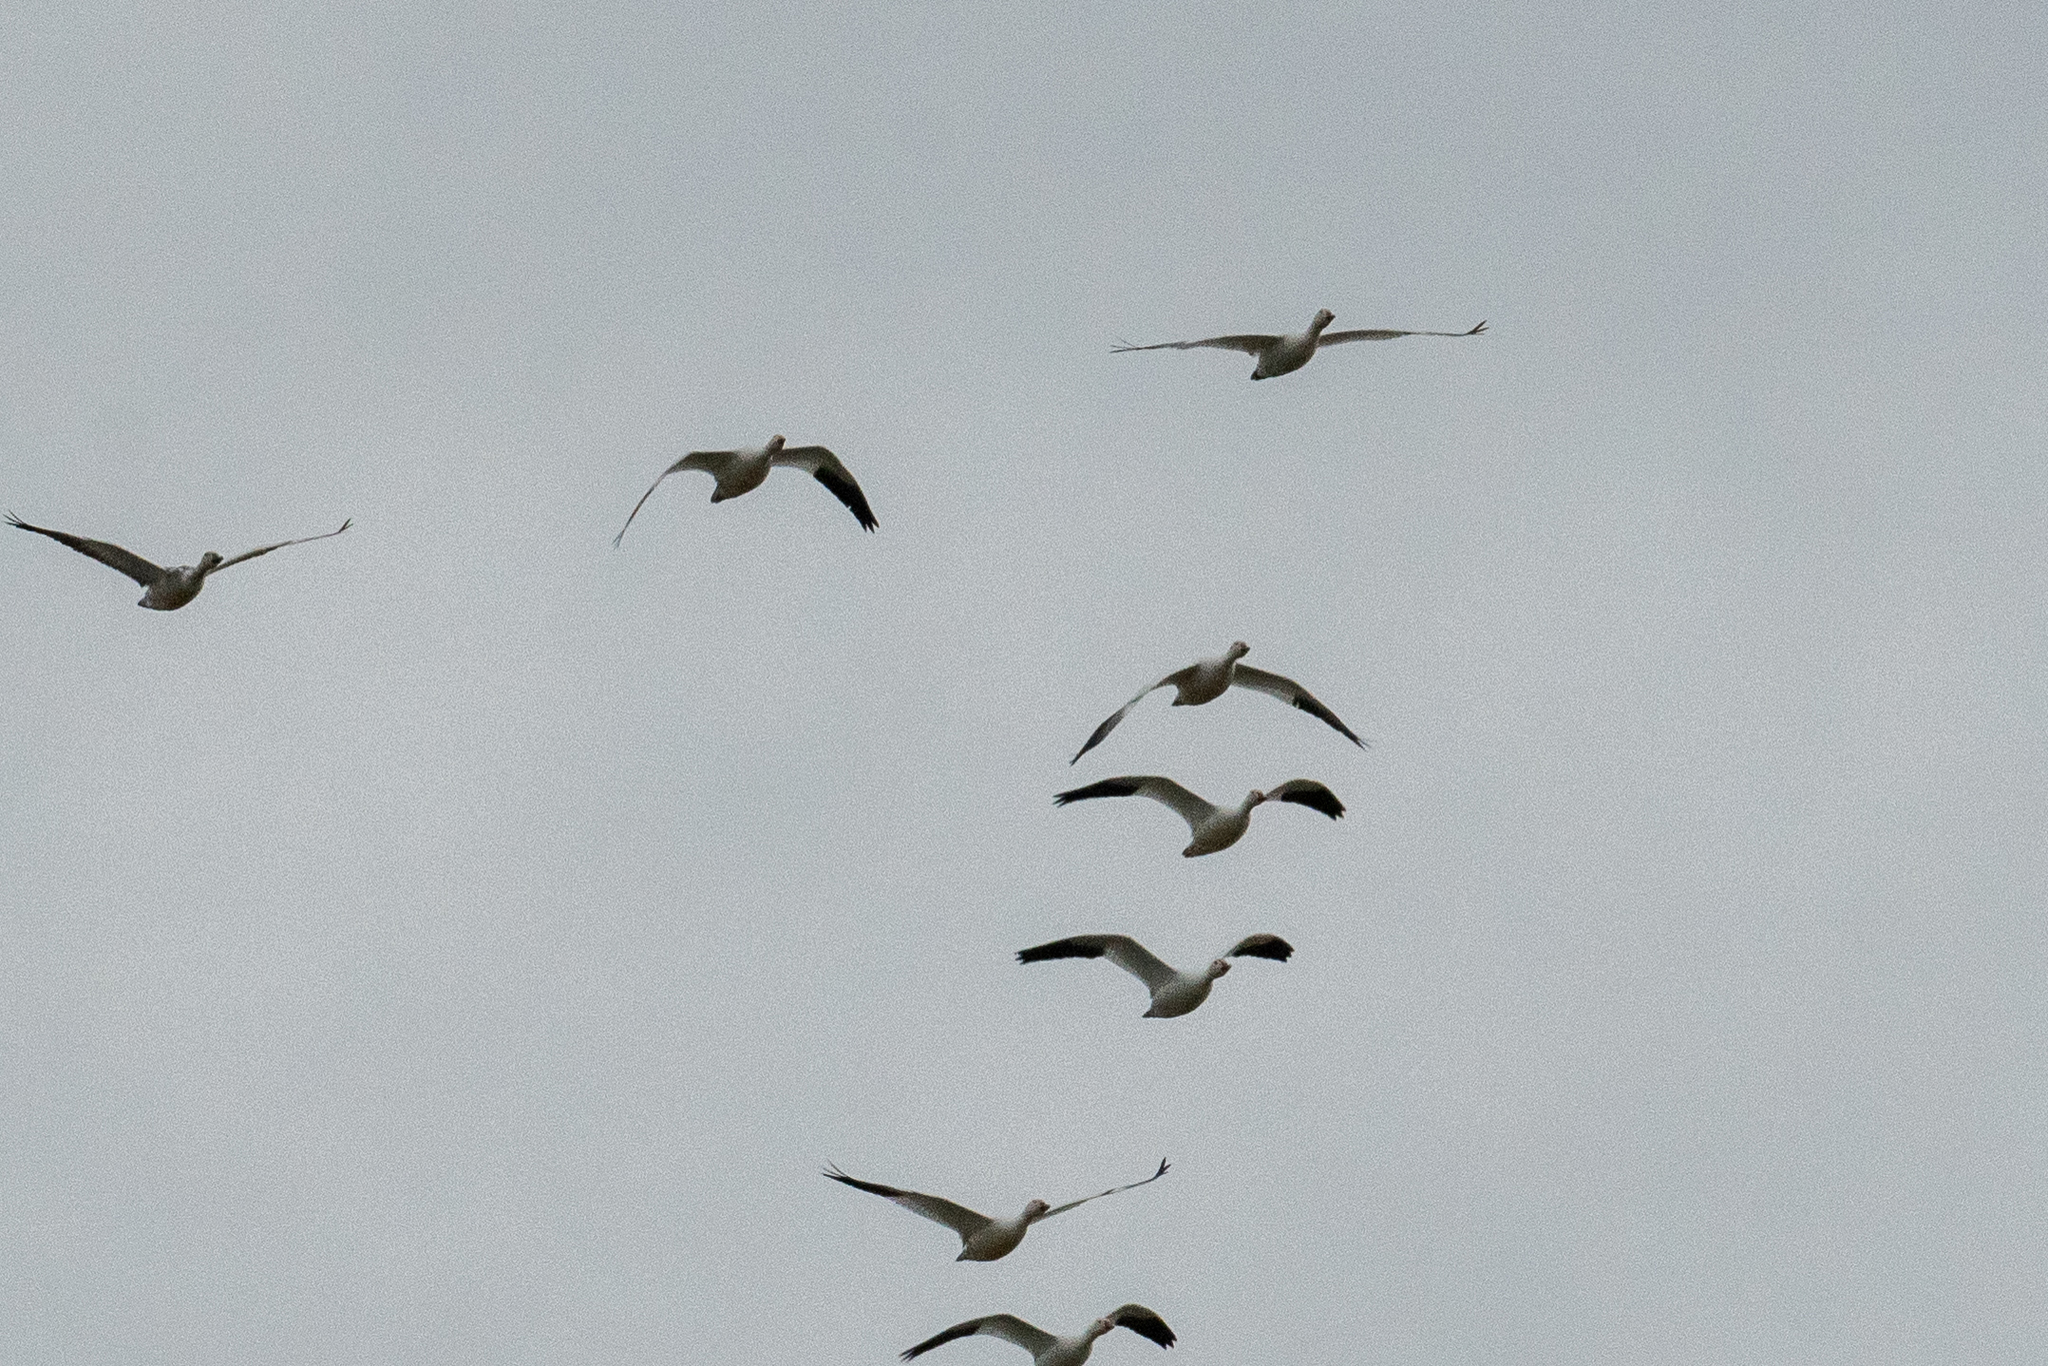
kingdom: Animalia
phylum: Chordata
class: Aves
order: Anseriformes
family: Anatidae
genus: Anser
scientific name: Anser caerulescens
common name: Snow goose
